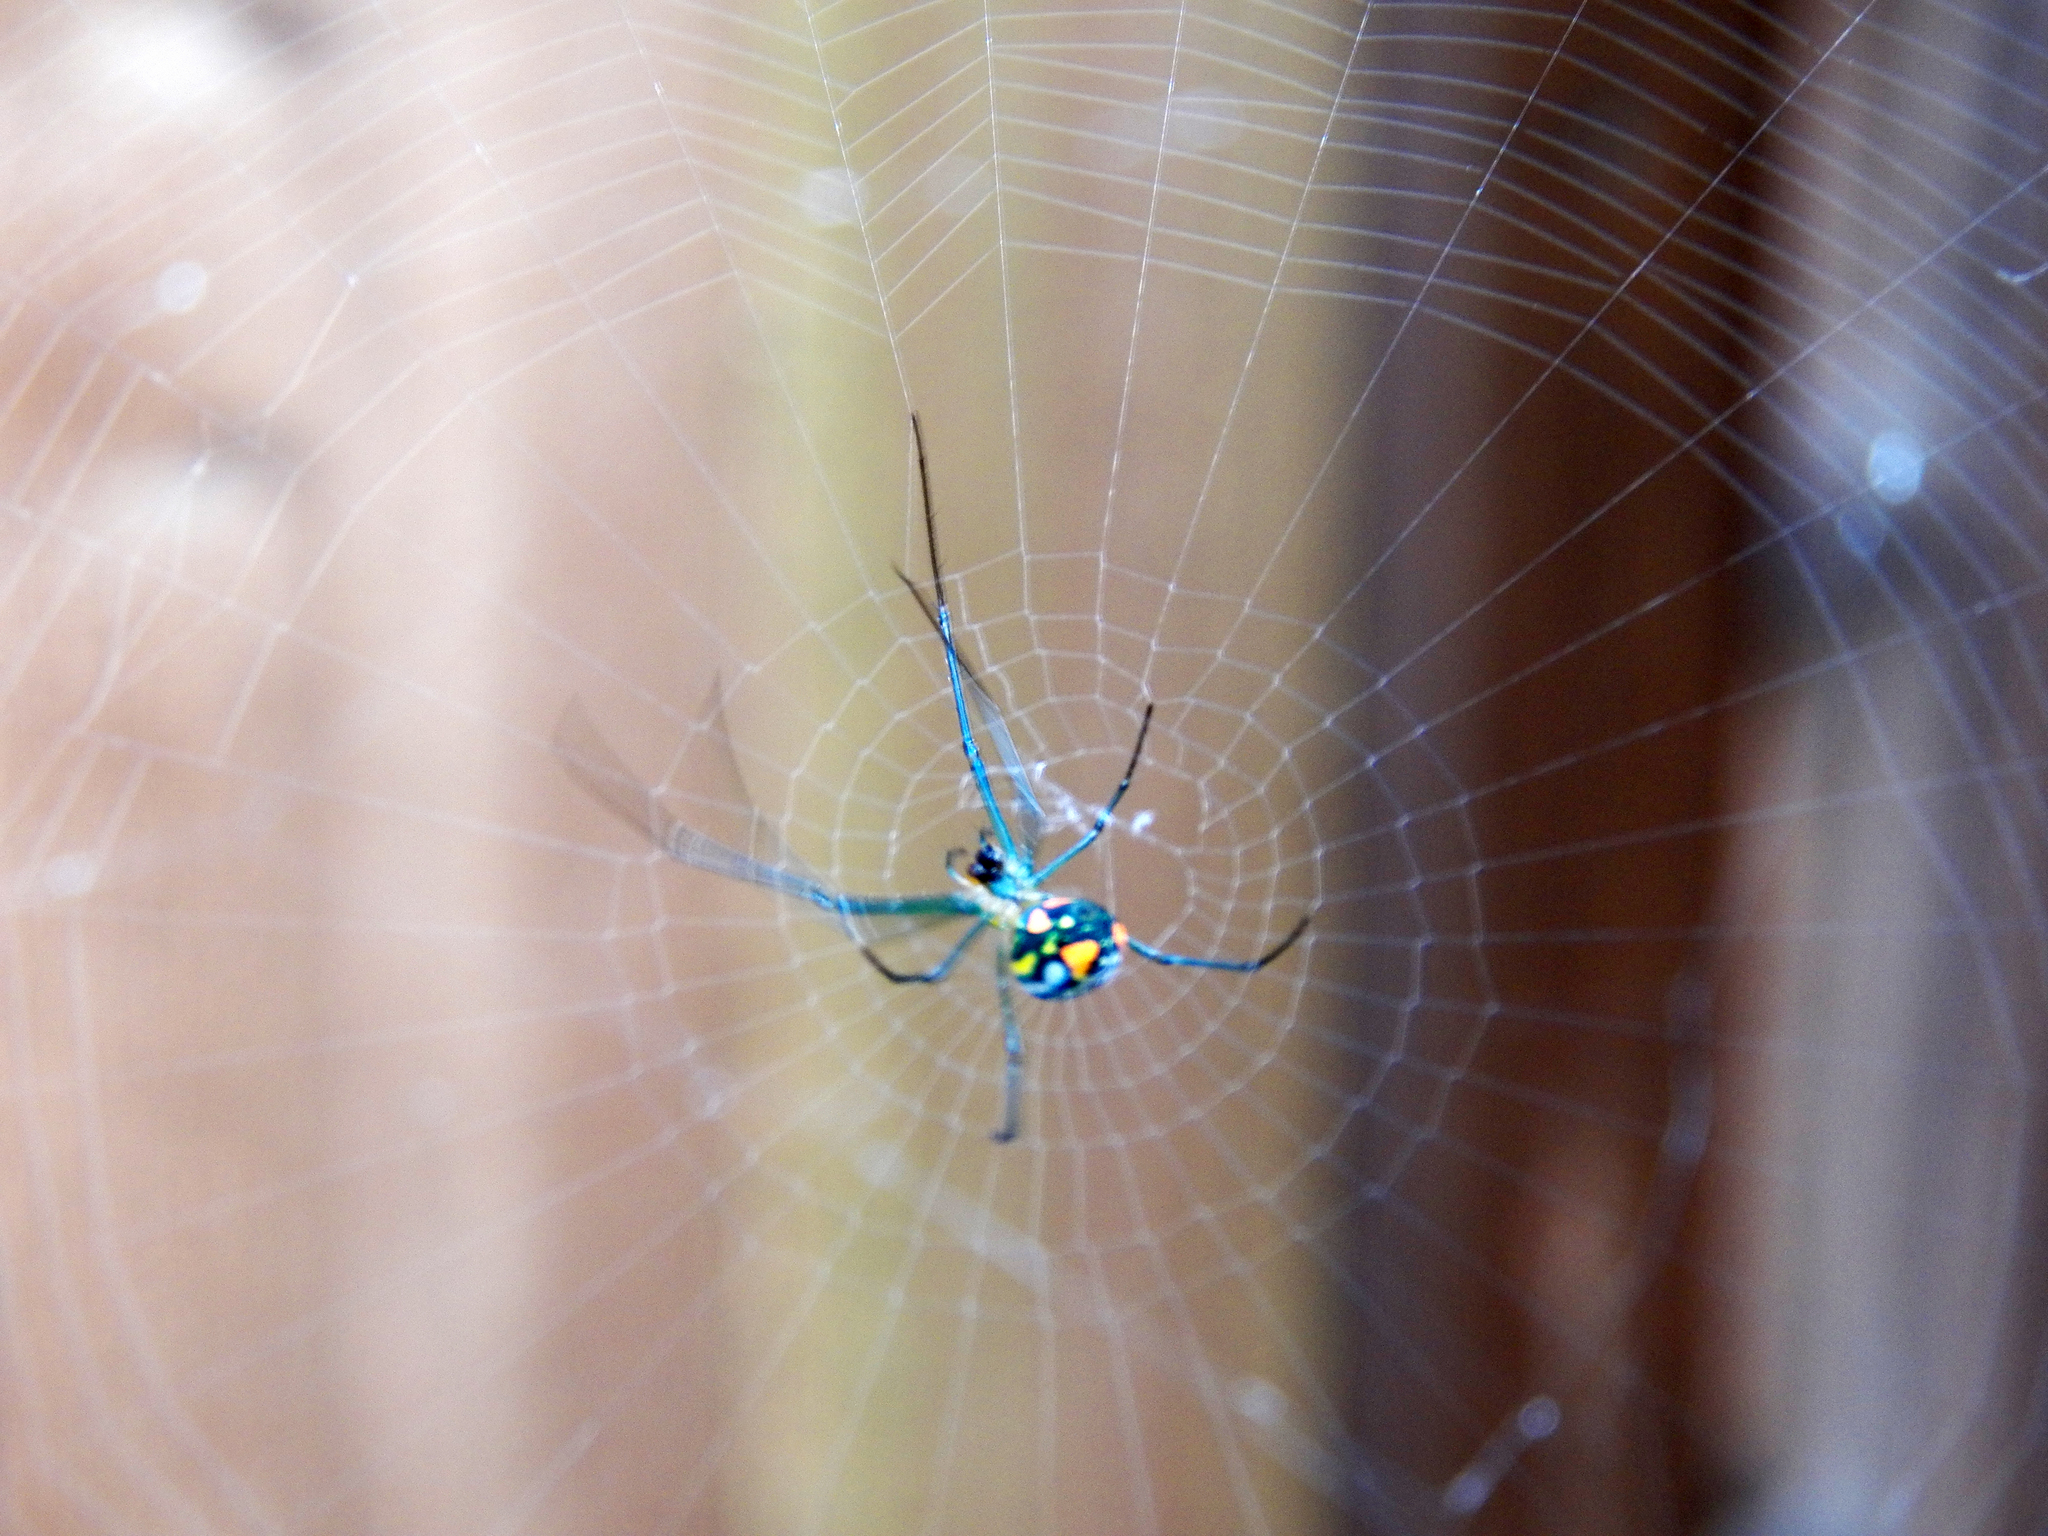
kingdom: Animalia
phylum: Arthropoda
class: Arachnida
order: Araneae
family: Tetragnathidae
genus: Leucauge
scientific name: Leucauge argyrobapta
